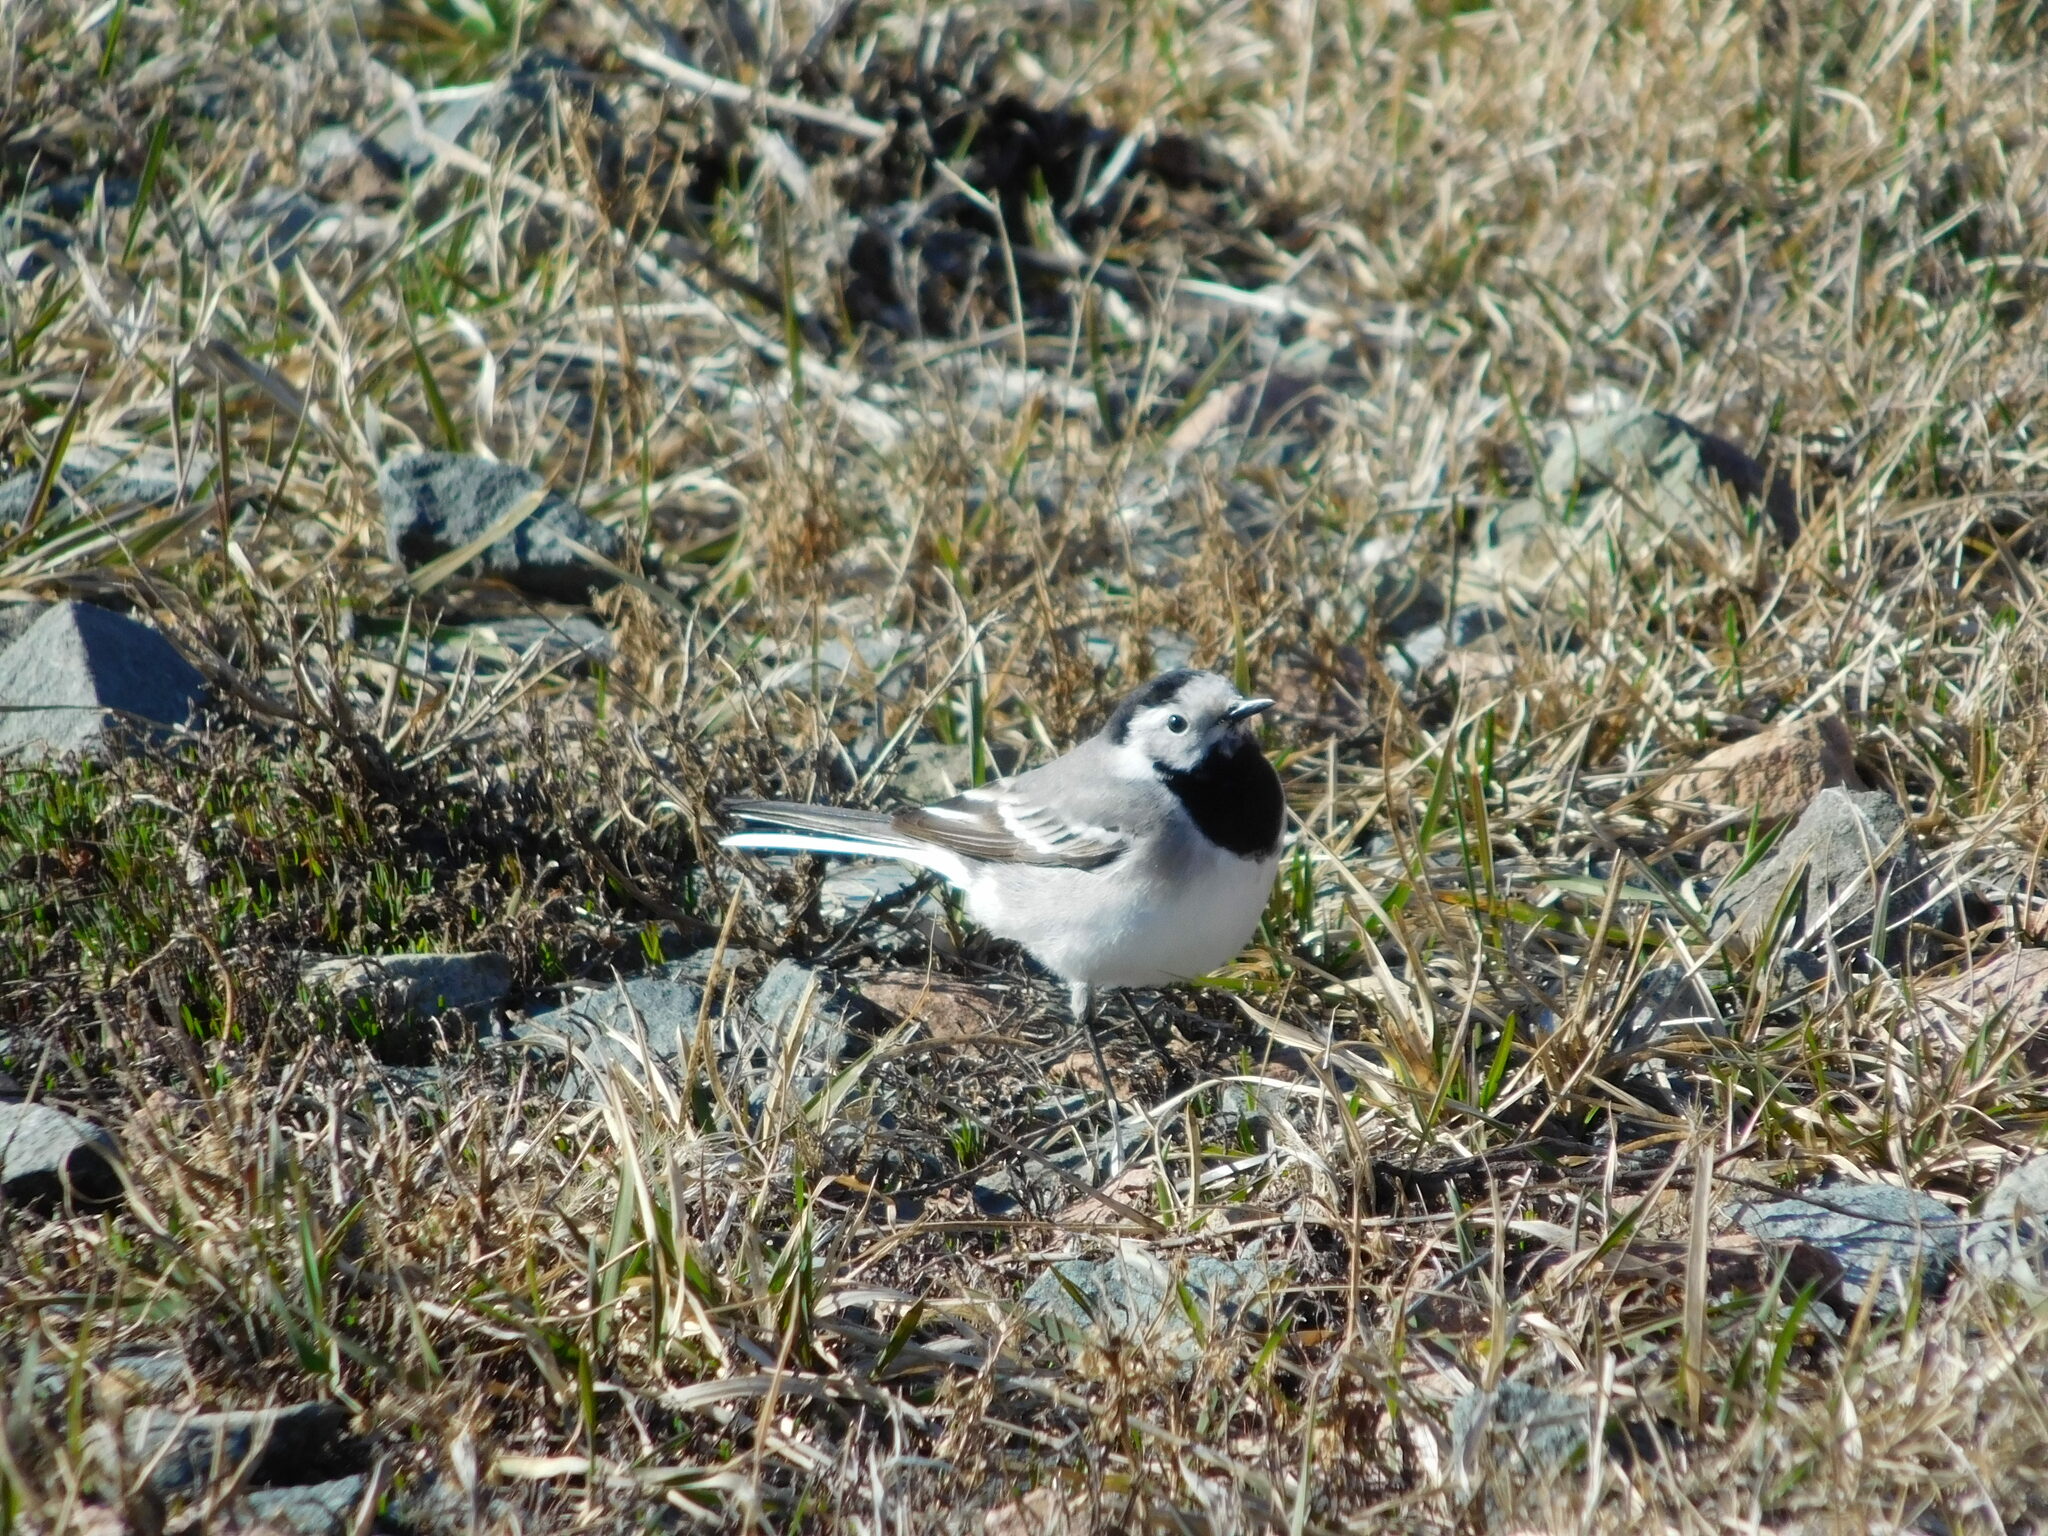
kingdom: Animalia
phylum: Chordata
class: Aves
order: Passeriformes
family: Motacillidae
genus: Motacilla
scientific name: Motacilla alba
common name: White wagtail
